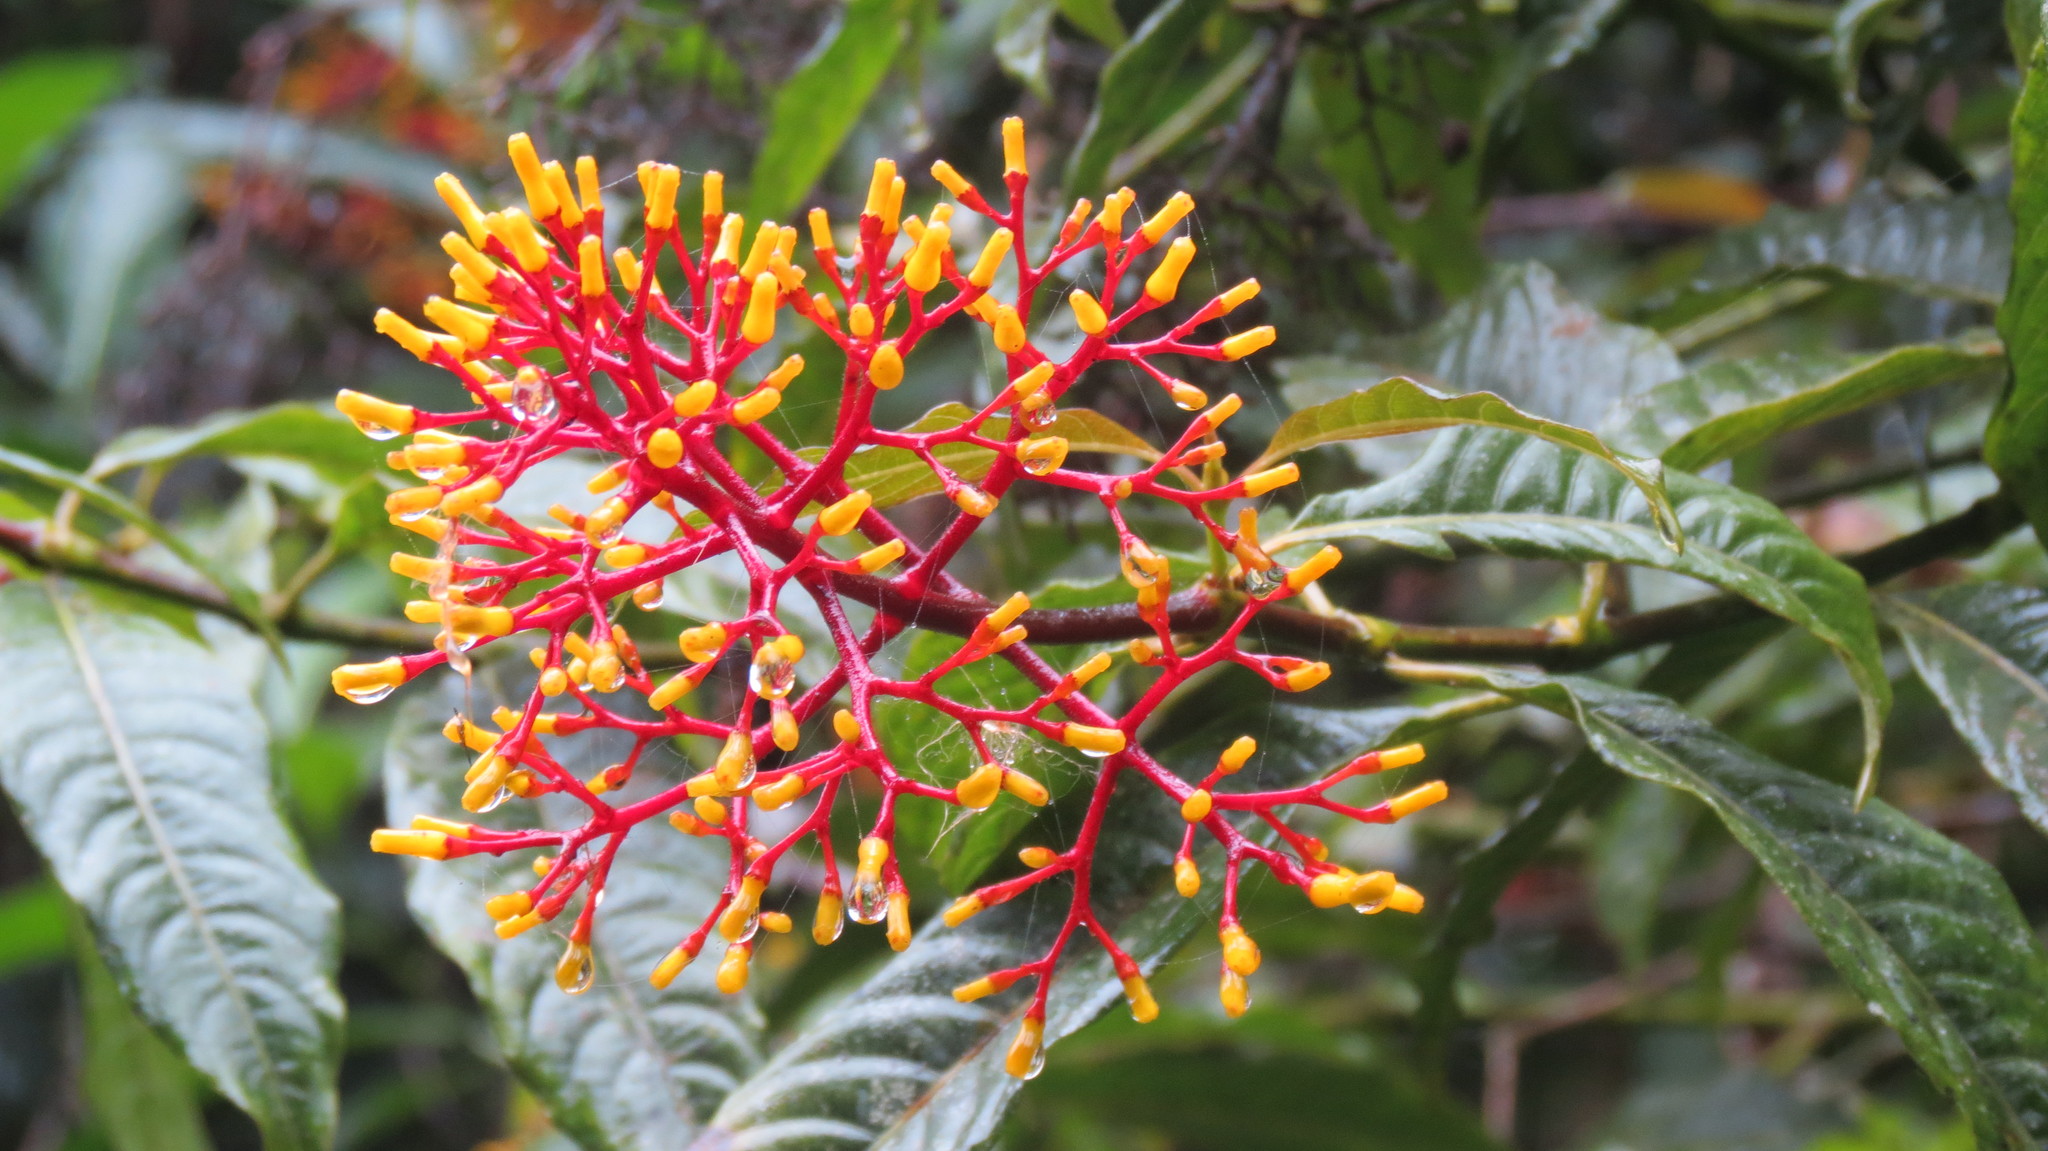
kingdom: Plantae
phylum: Tracheophyta
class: Magnoliopsida
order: Gentianales
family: Rubiaceae
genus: Palicourea
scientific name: Palicourea padifolia
